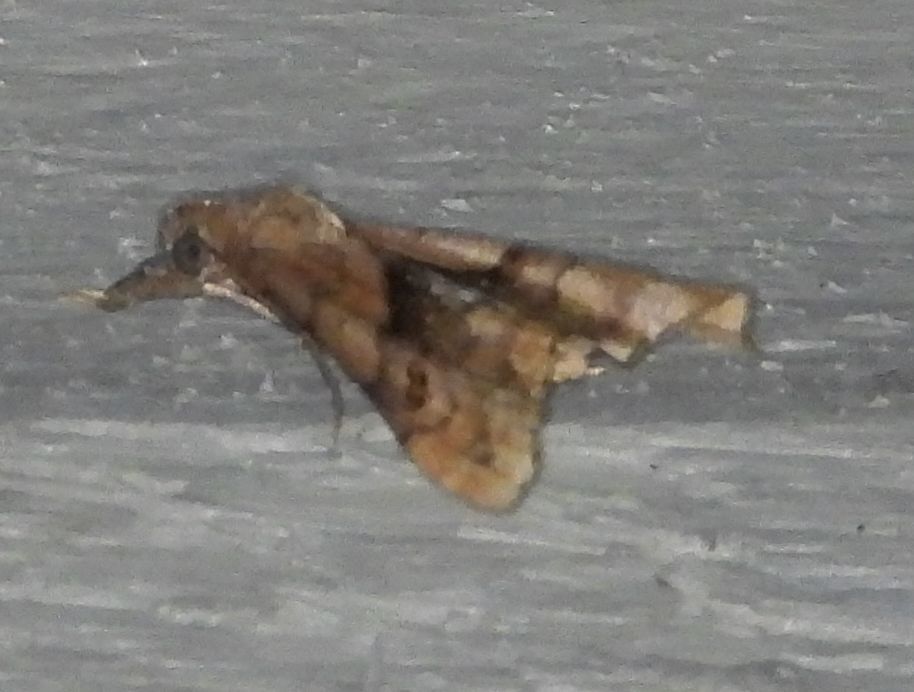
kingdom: Animalia
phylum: Arthropoda
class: Insecta
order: Lepidoptera
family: Erebidae
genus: Palthis
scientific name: Palthis angulalis
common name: Dark-spotted palthis moth
